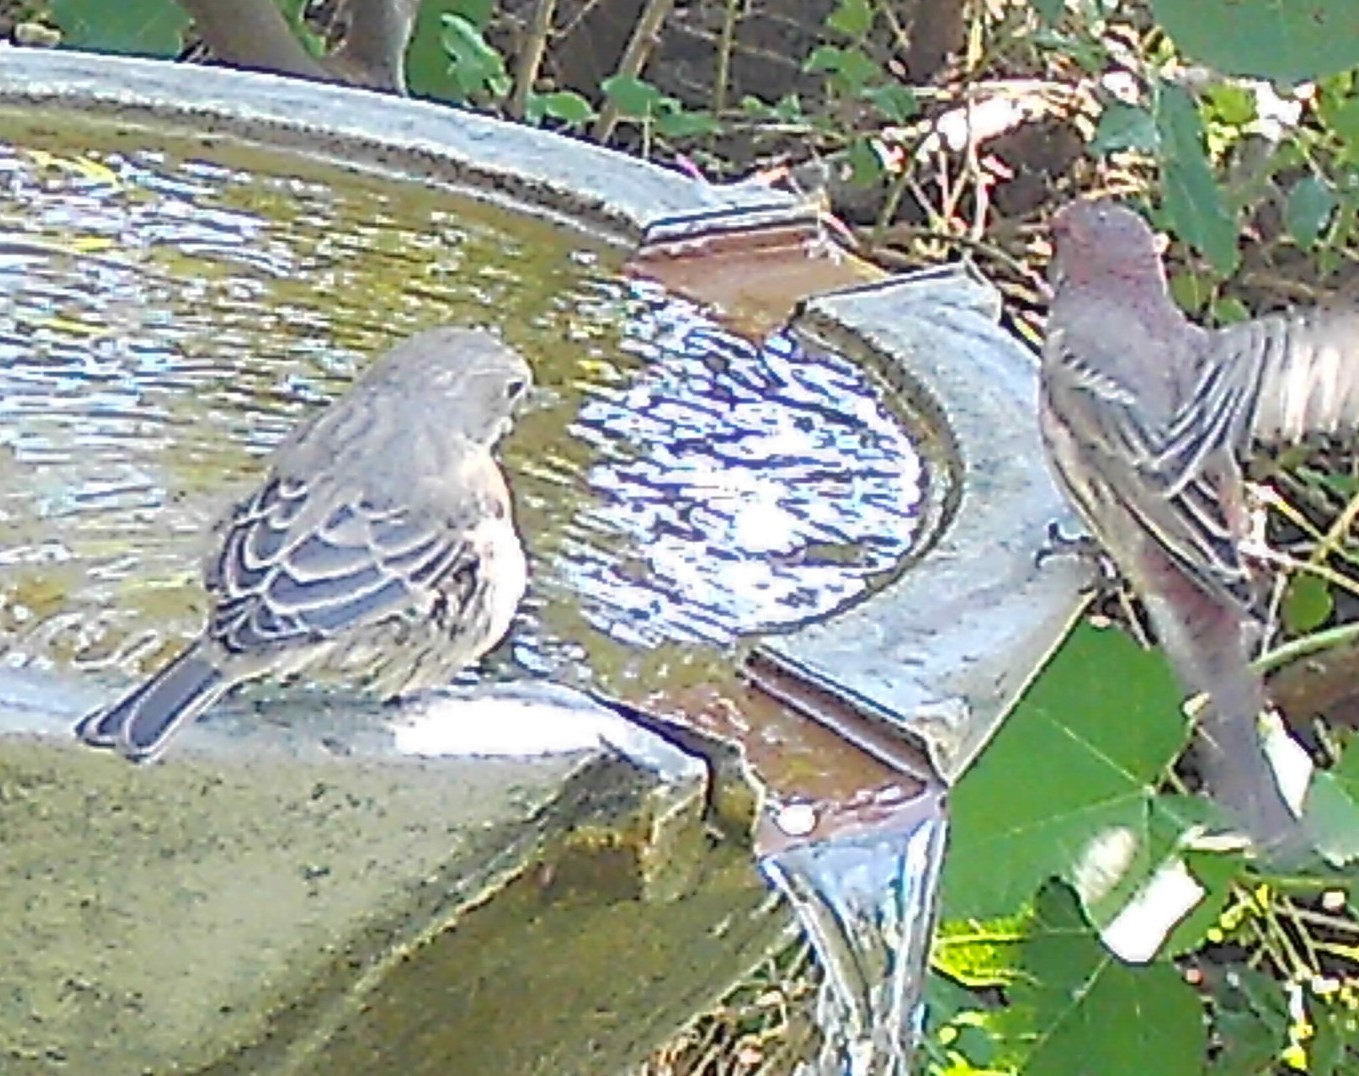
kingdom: Animalia
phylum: Chordata
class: Aves
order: Passeriformes
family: Fringillidae
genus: Haemorhous
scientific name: Haemorhous mexicanus
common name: House finch
